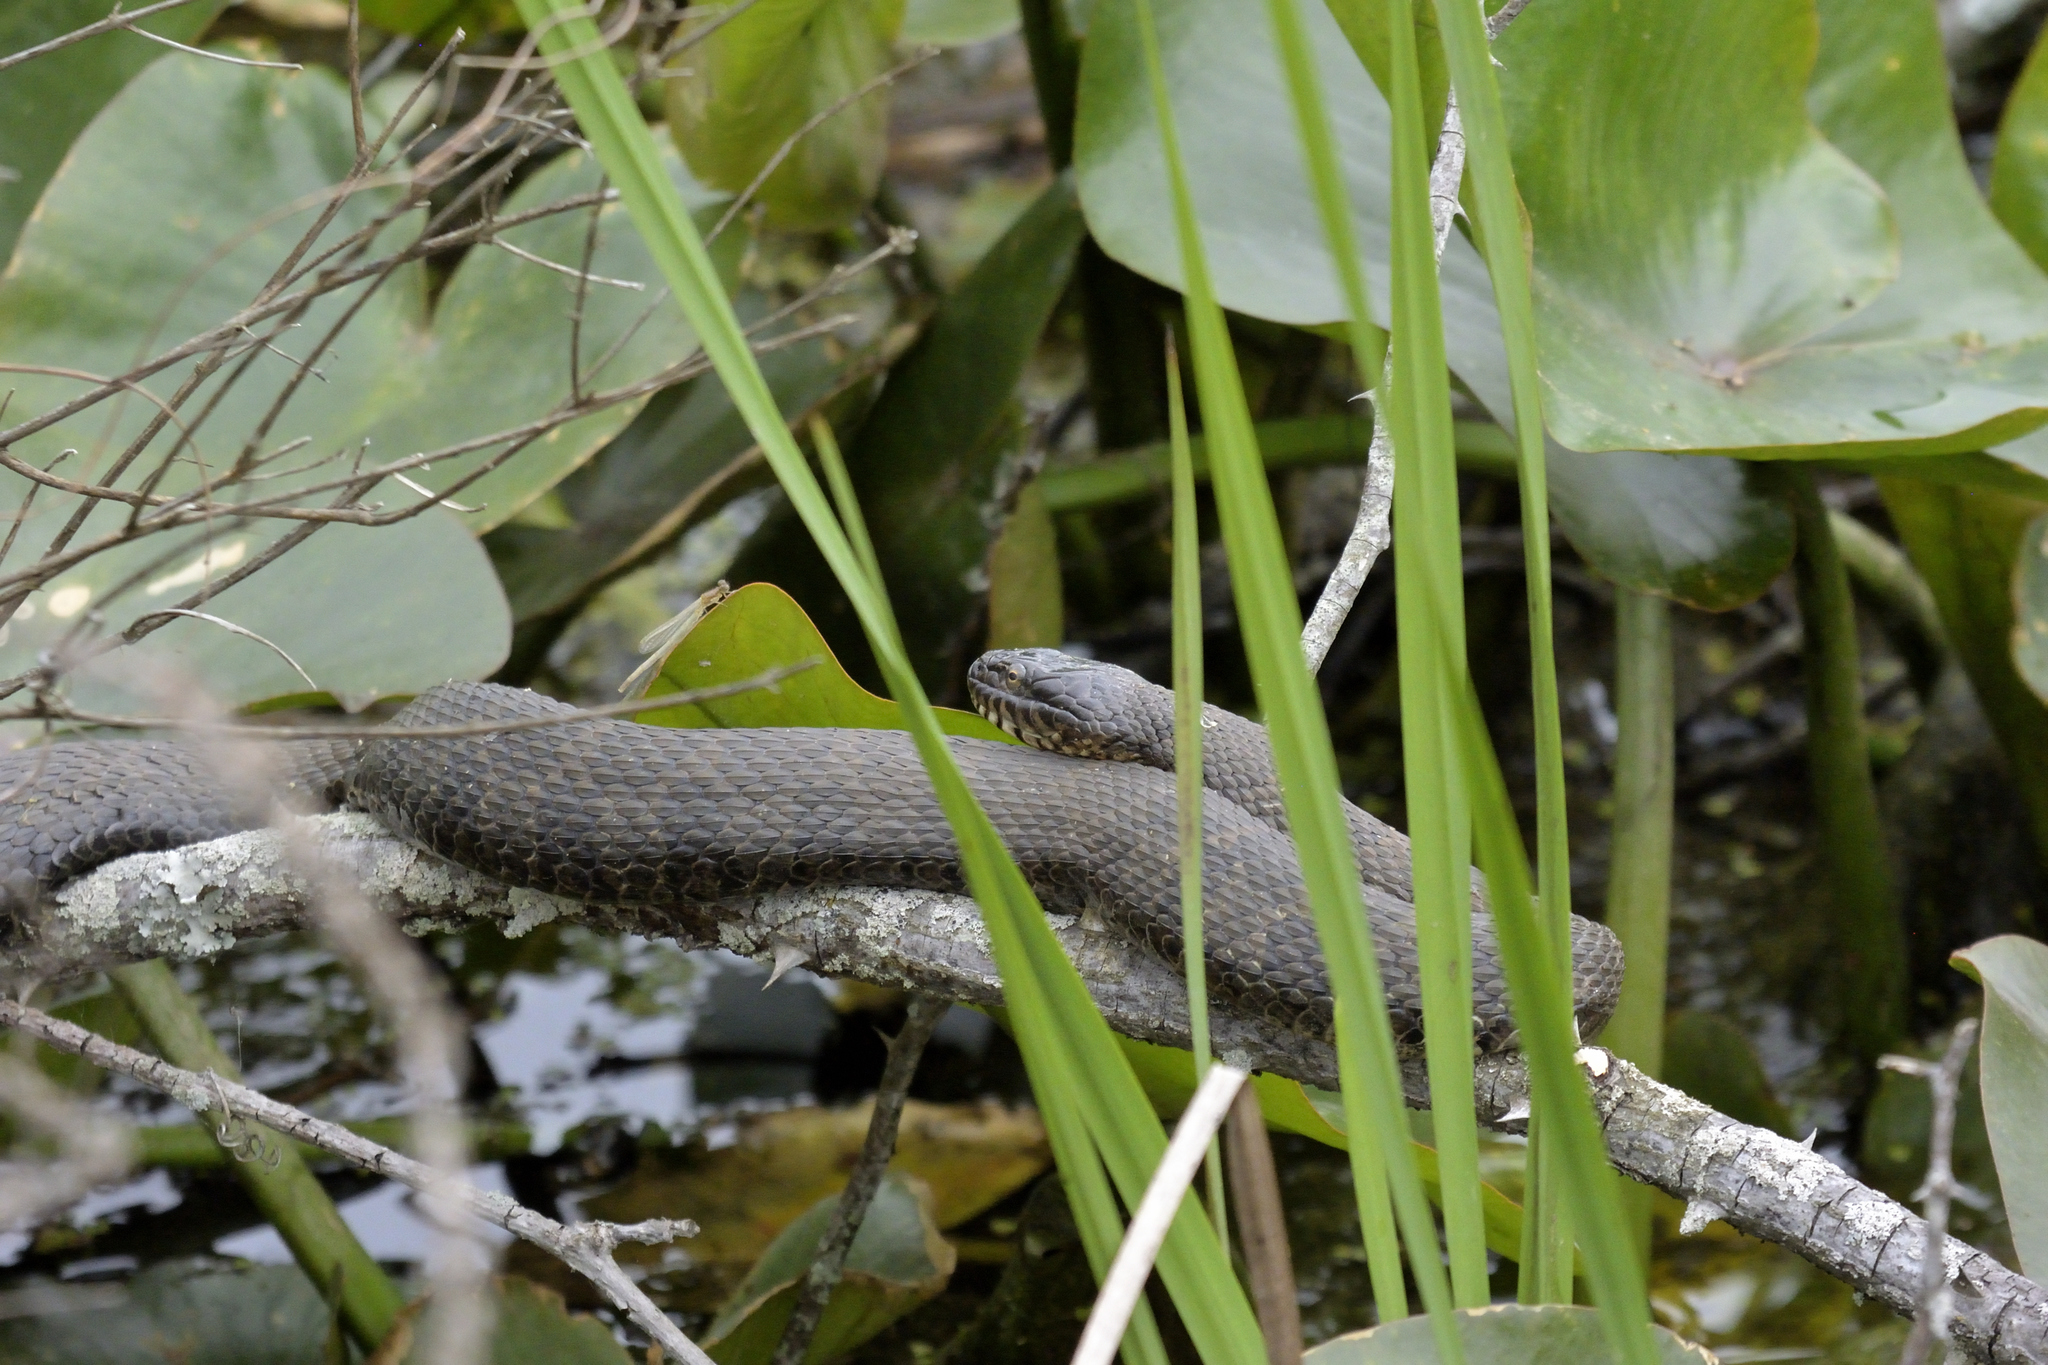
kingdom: Animalia
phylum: Chordata
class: Squamata
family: Colubridae
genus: Nerodia
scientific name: Nerodia sipedon
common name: Northern water snake
